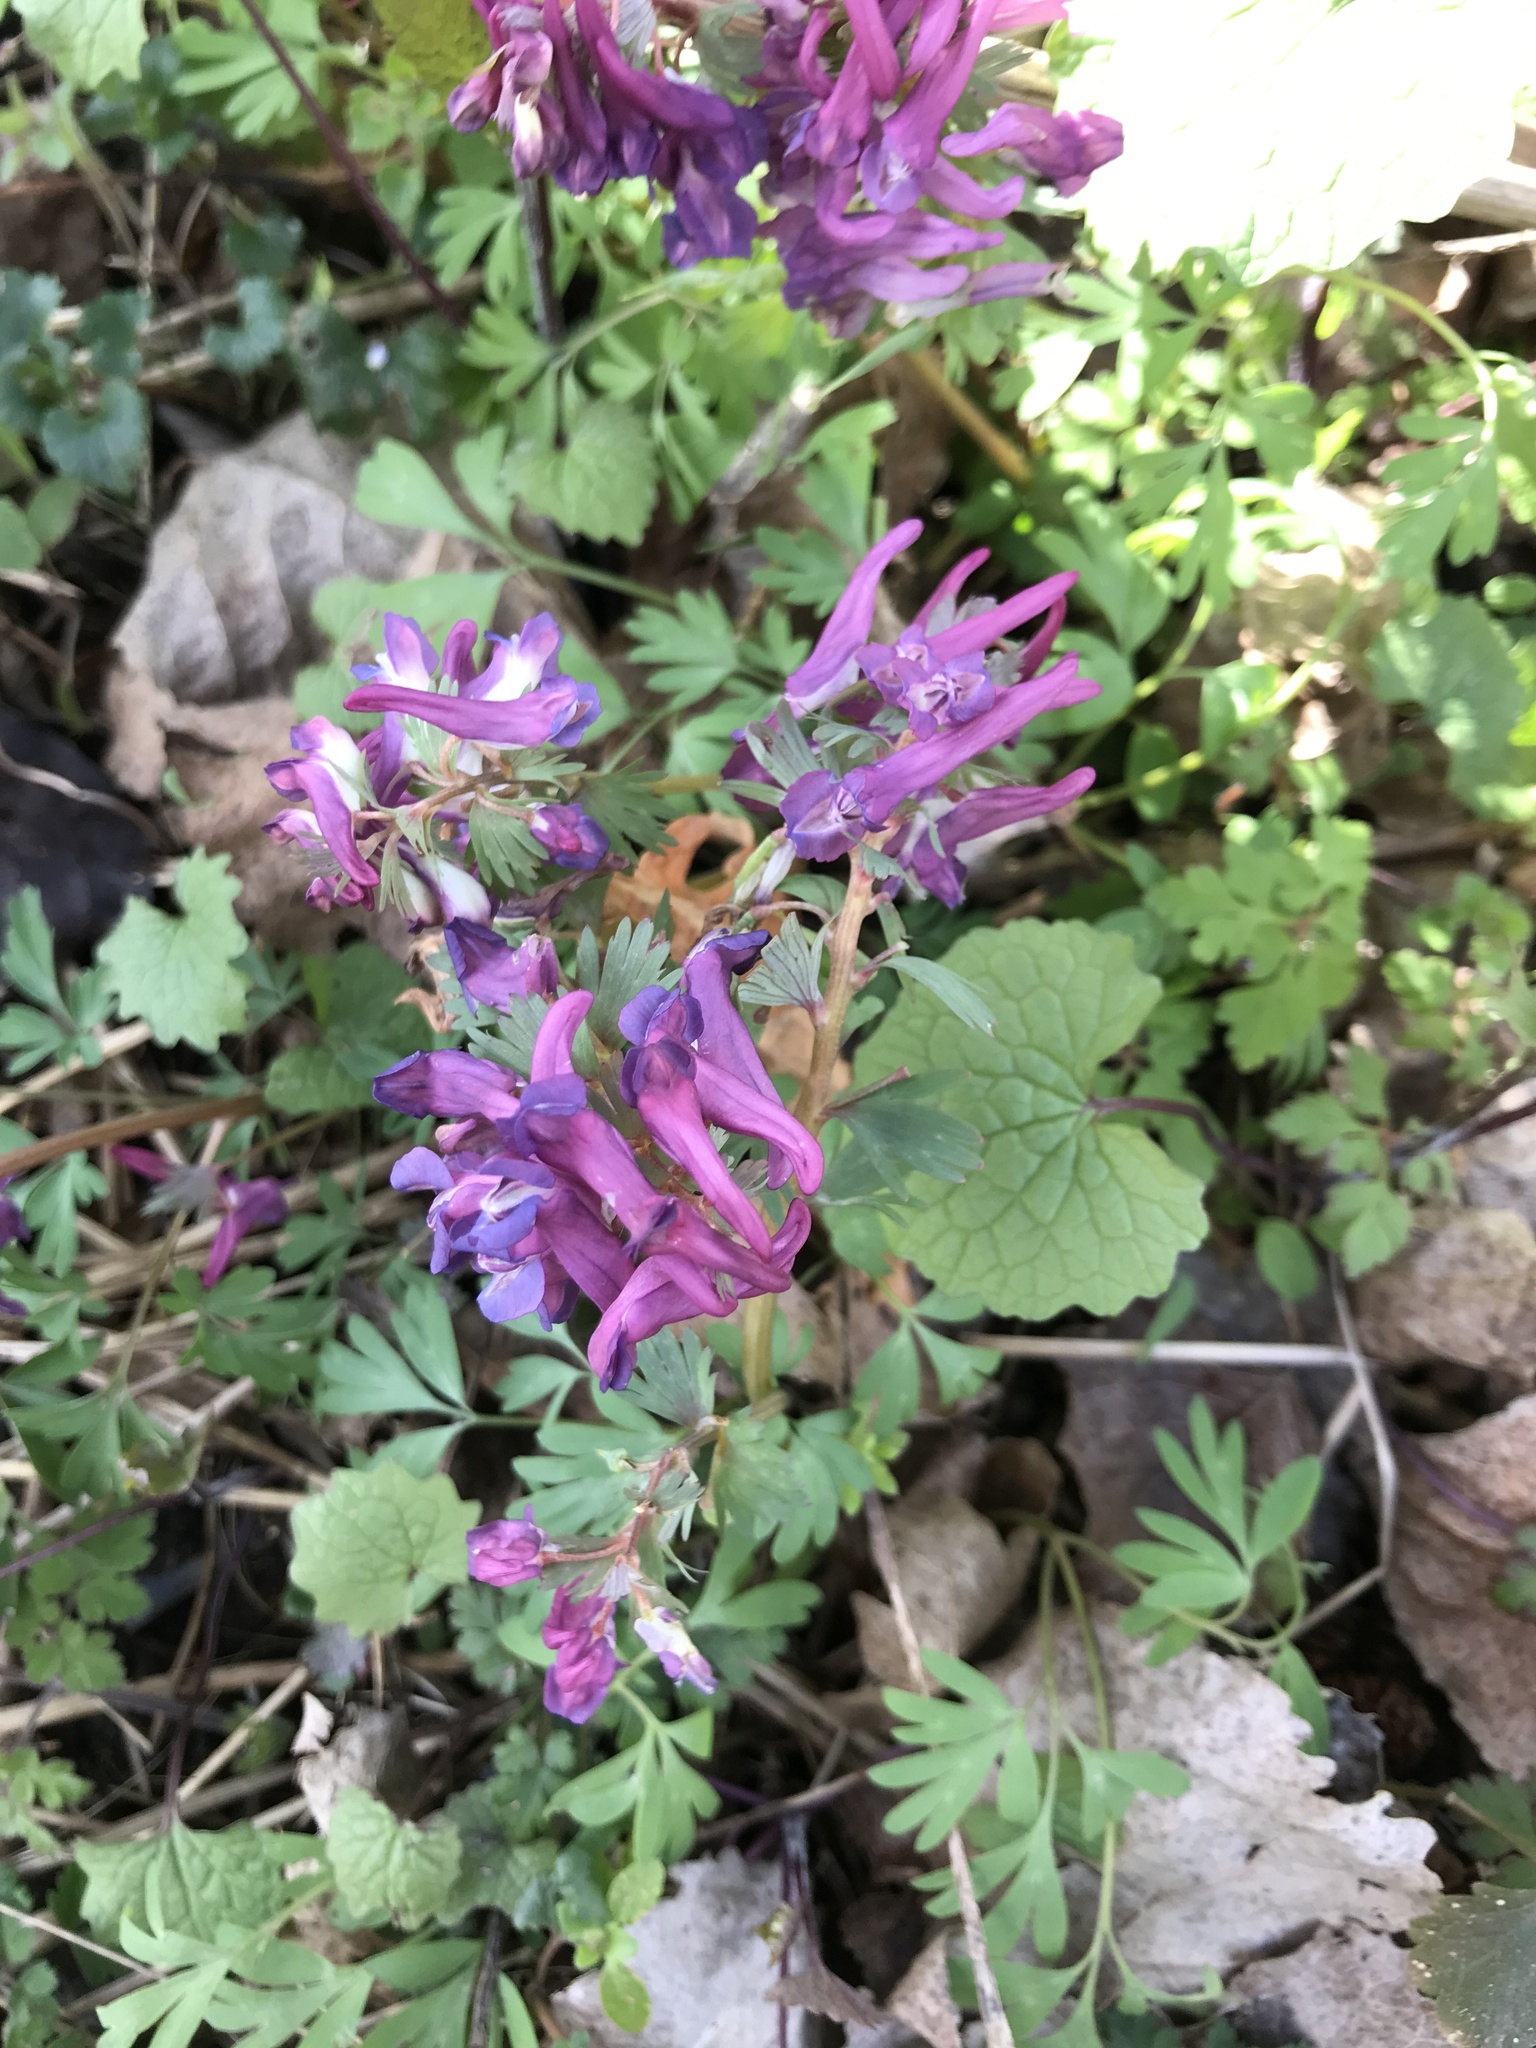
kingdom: Plantae
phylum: Tracheophyta
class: Magnoliopsida
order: Ranunculales
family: Papaveraceae
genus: Corydalis
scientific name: Corydalis solida
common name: Bird-in-a-bush
